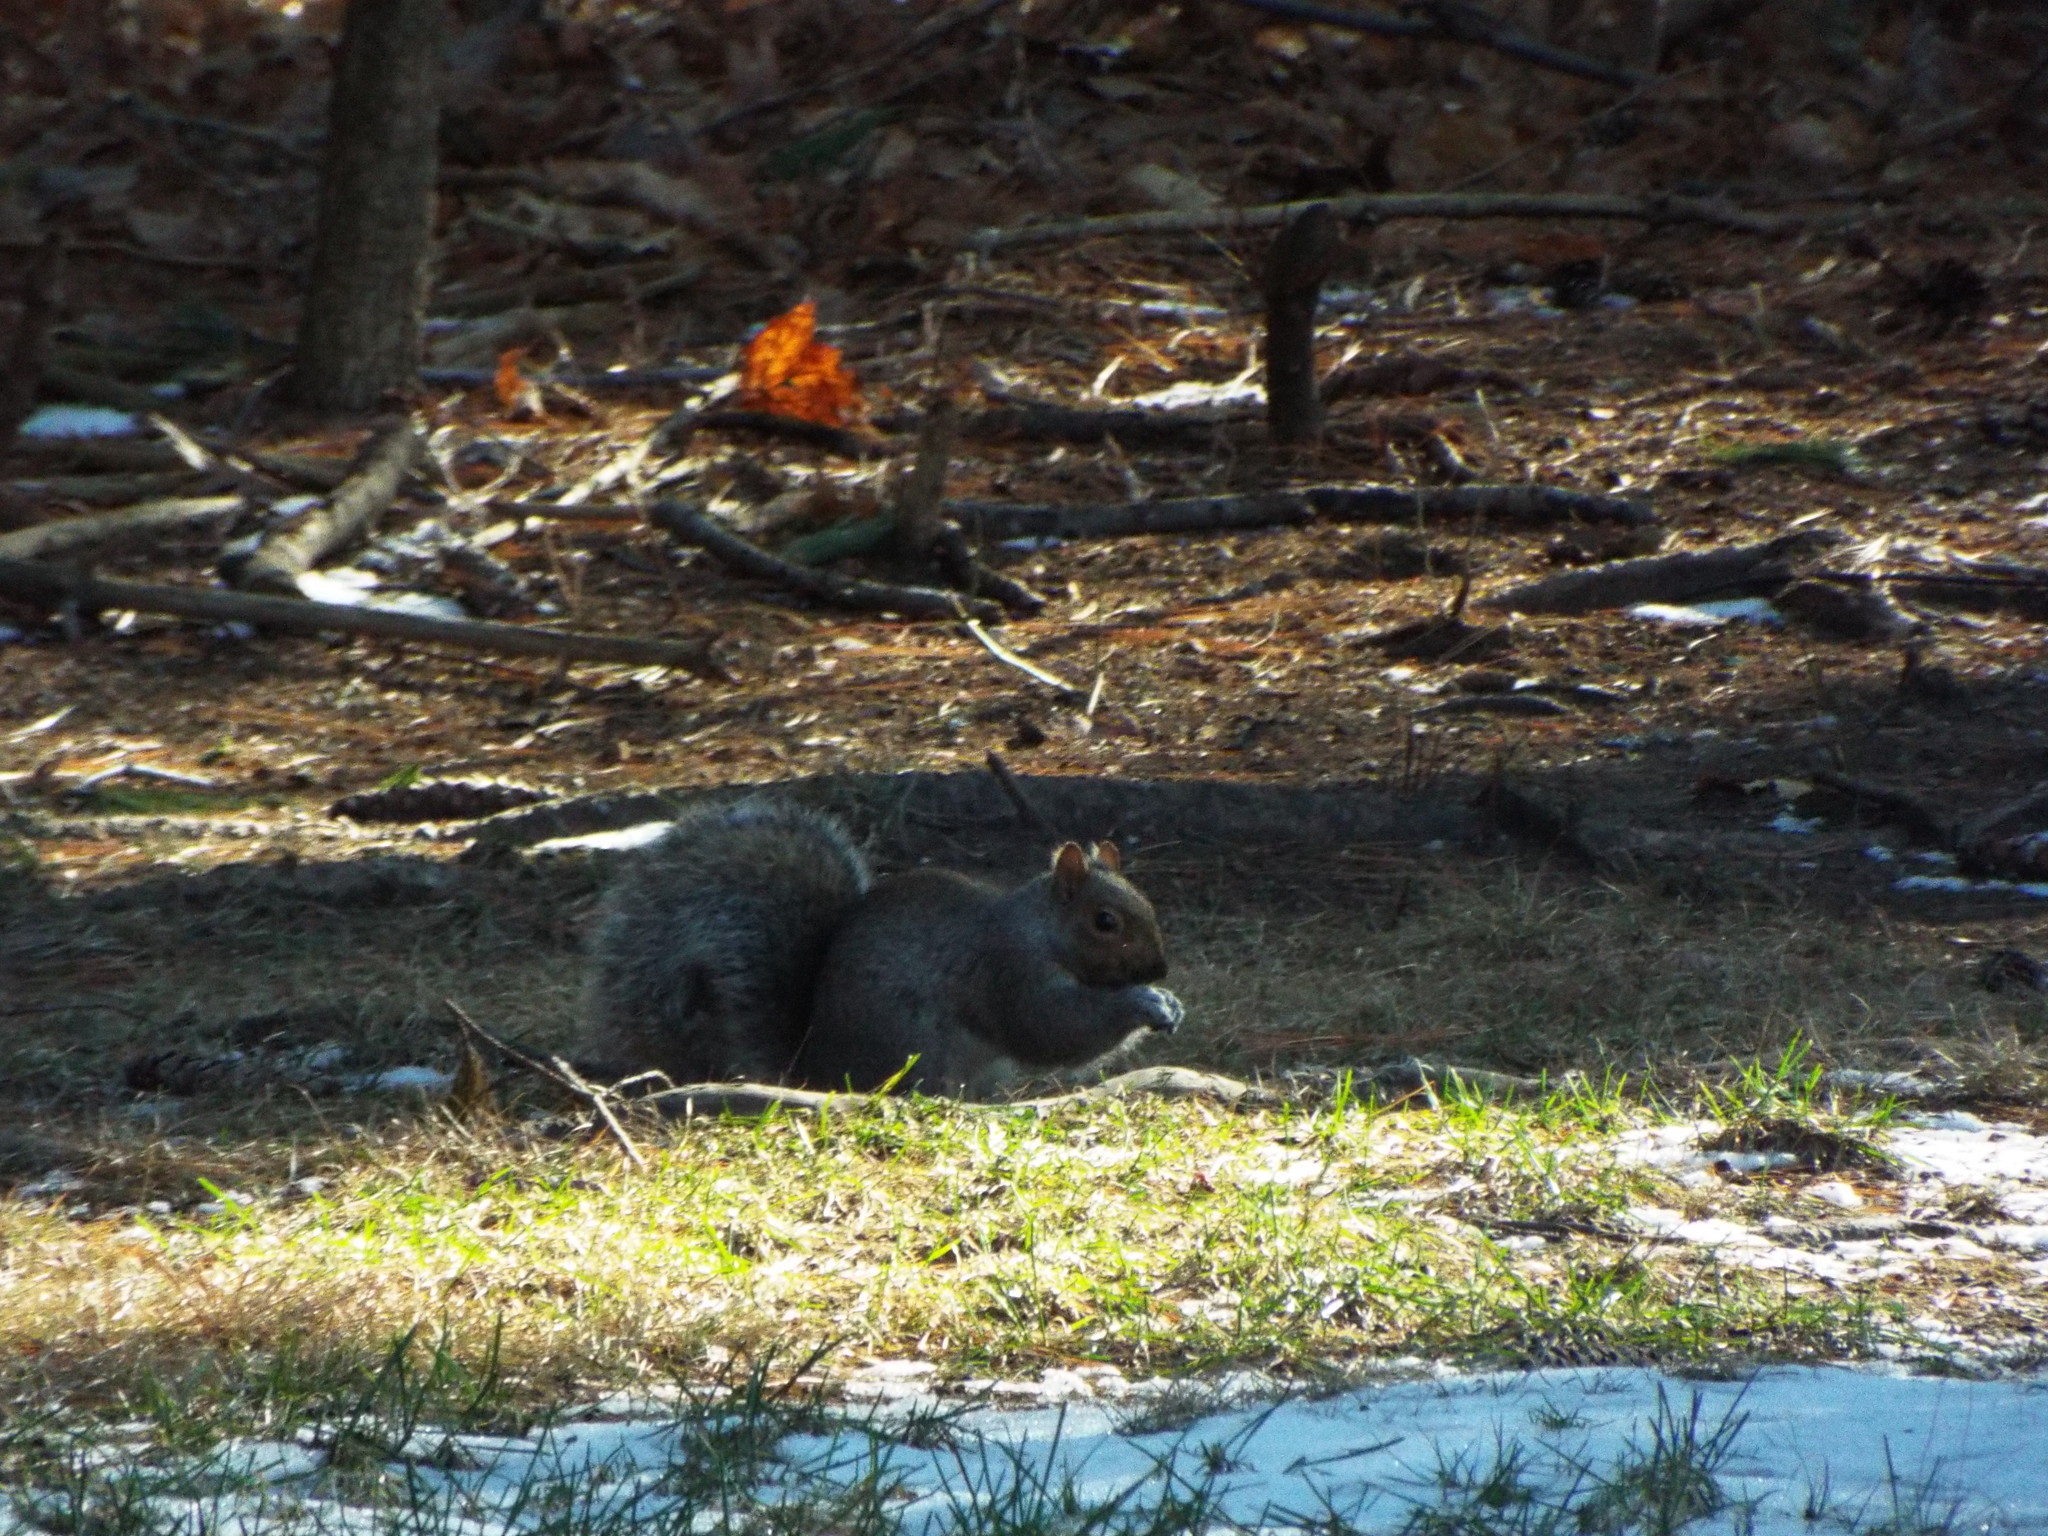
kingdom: Animalia
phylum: Chordata
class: Mammalia
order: Rodentia
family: Sciuridae
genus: Sciurus
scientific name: Sciurus carolinensis
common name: Eastern gray squirrel
